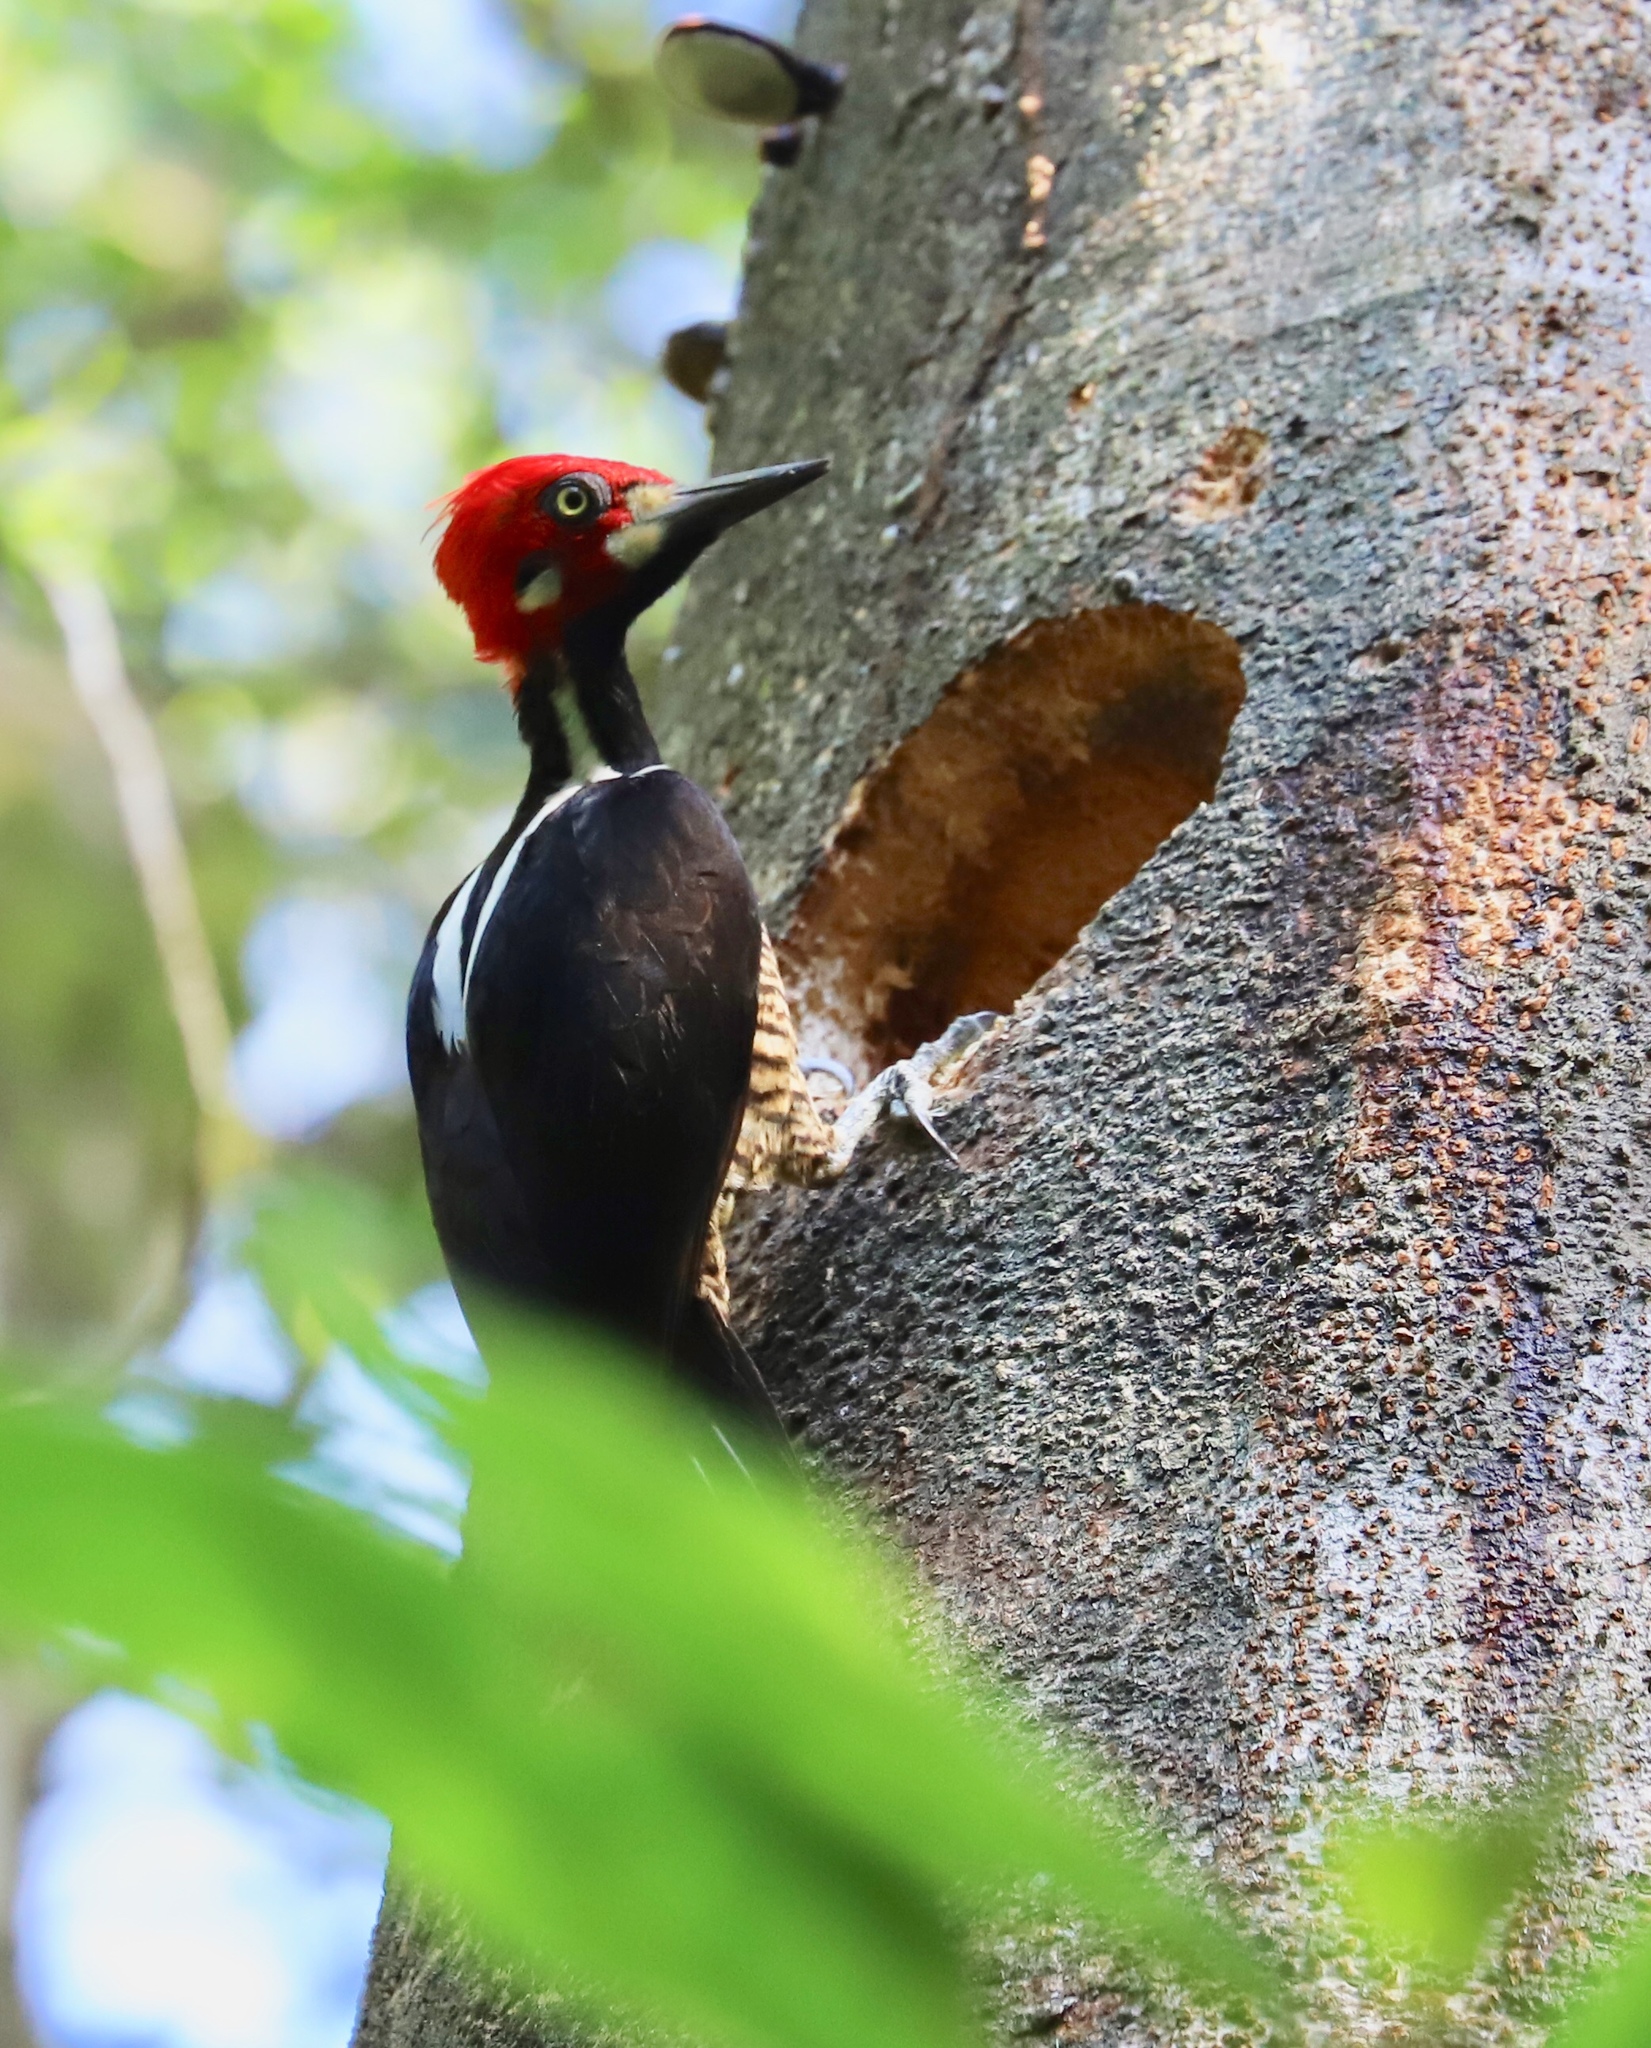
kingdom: Animalia
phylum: Chordata
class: Aves
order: Piciformes
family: Picidae
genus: Campephilus
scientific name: Campephilus melanoleucos
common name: Crimson-crested woodpecker
